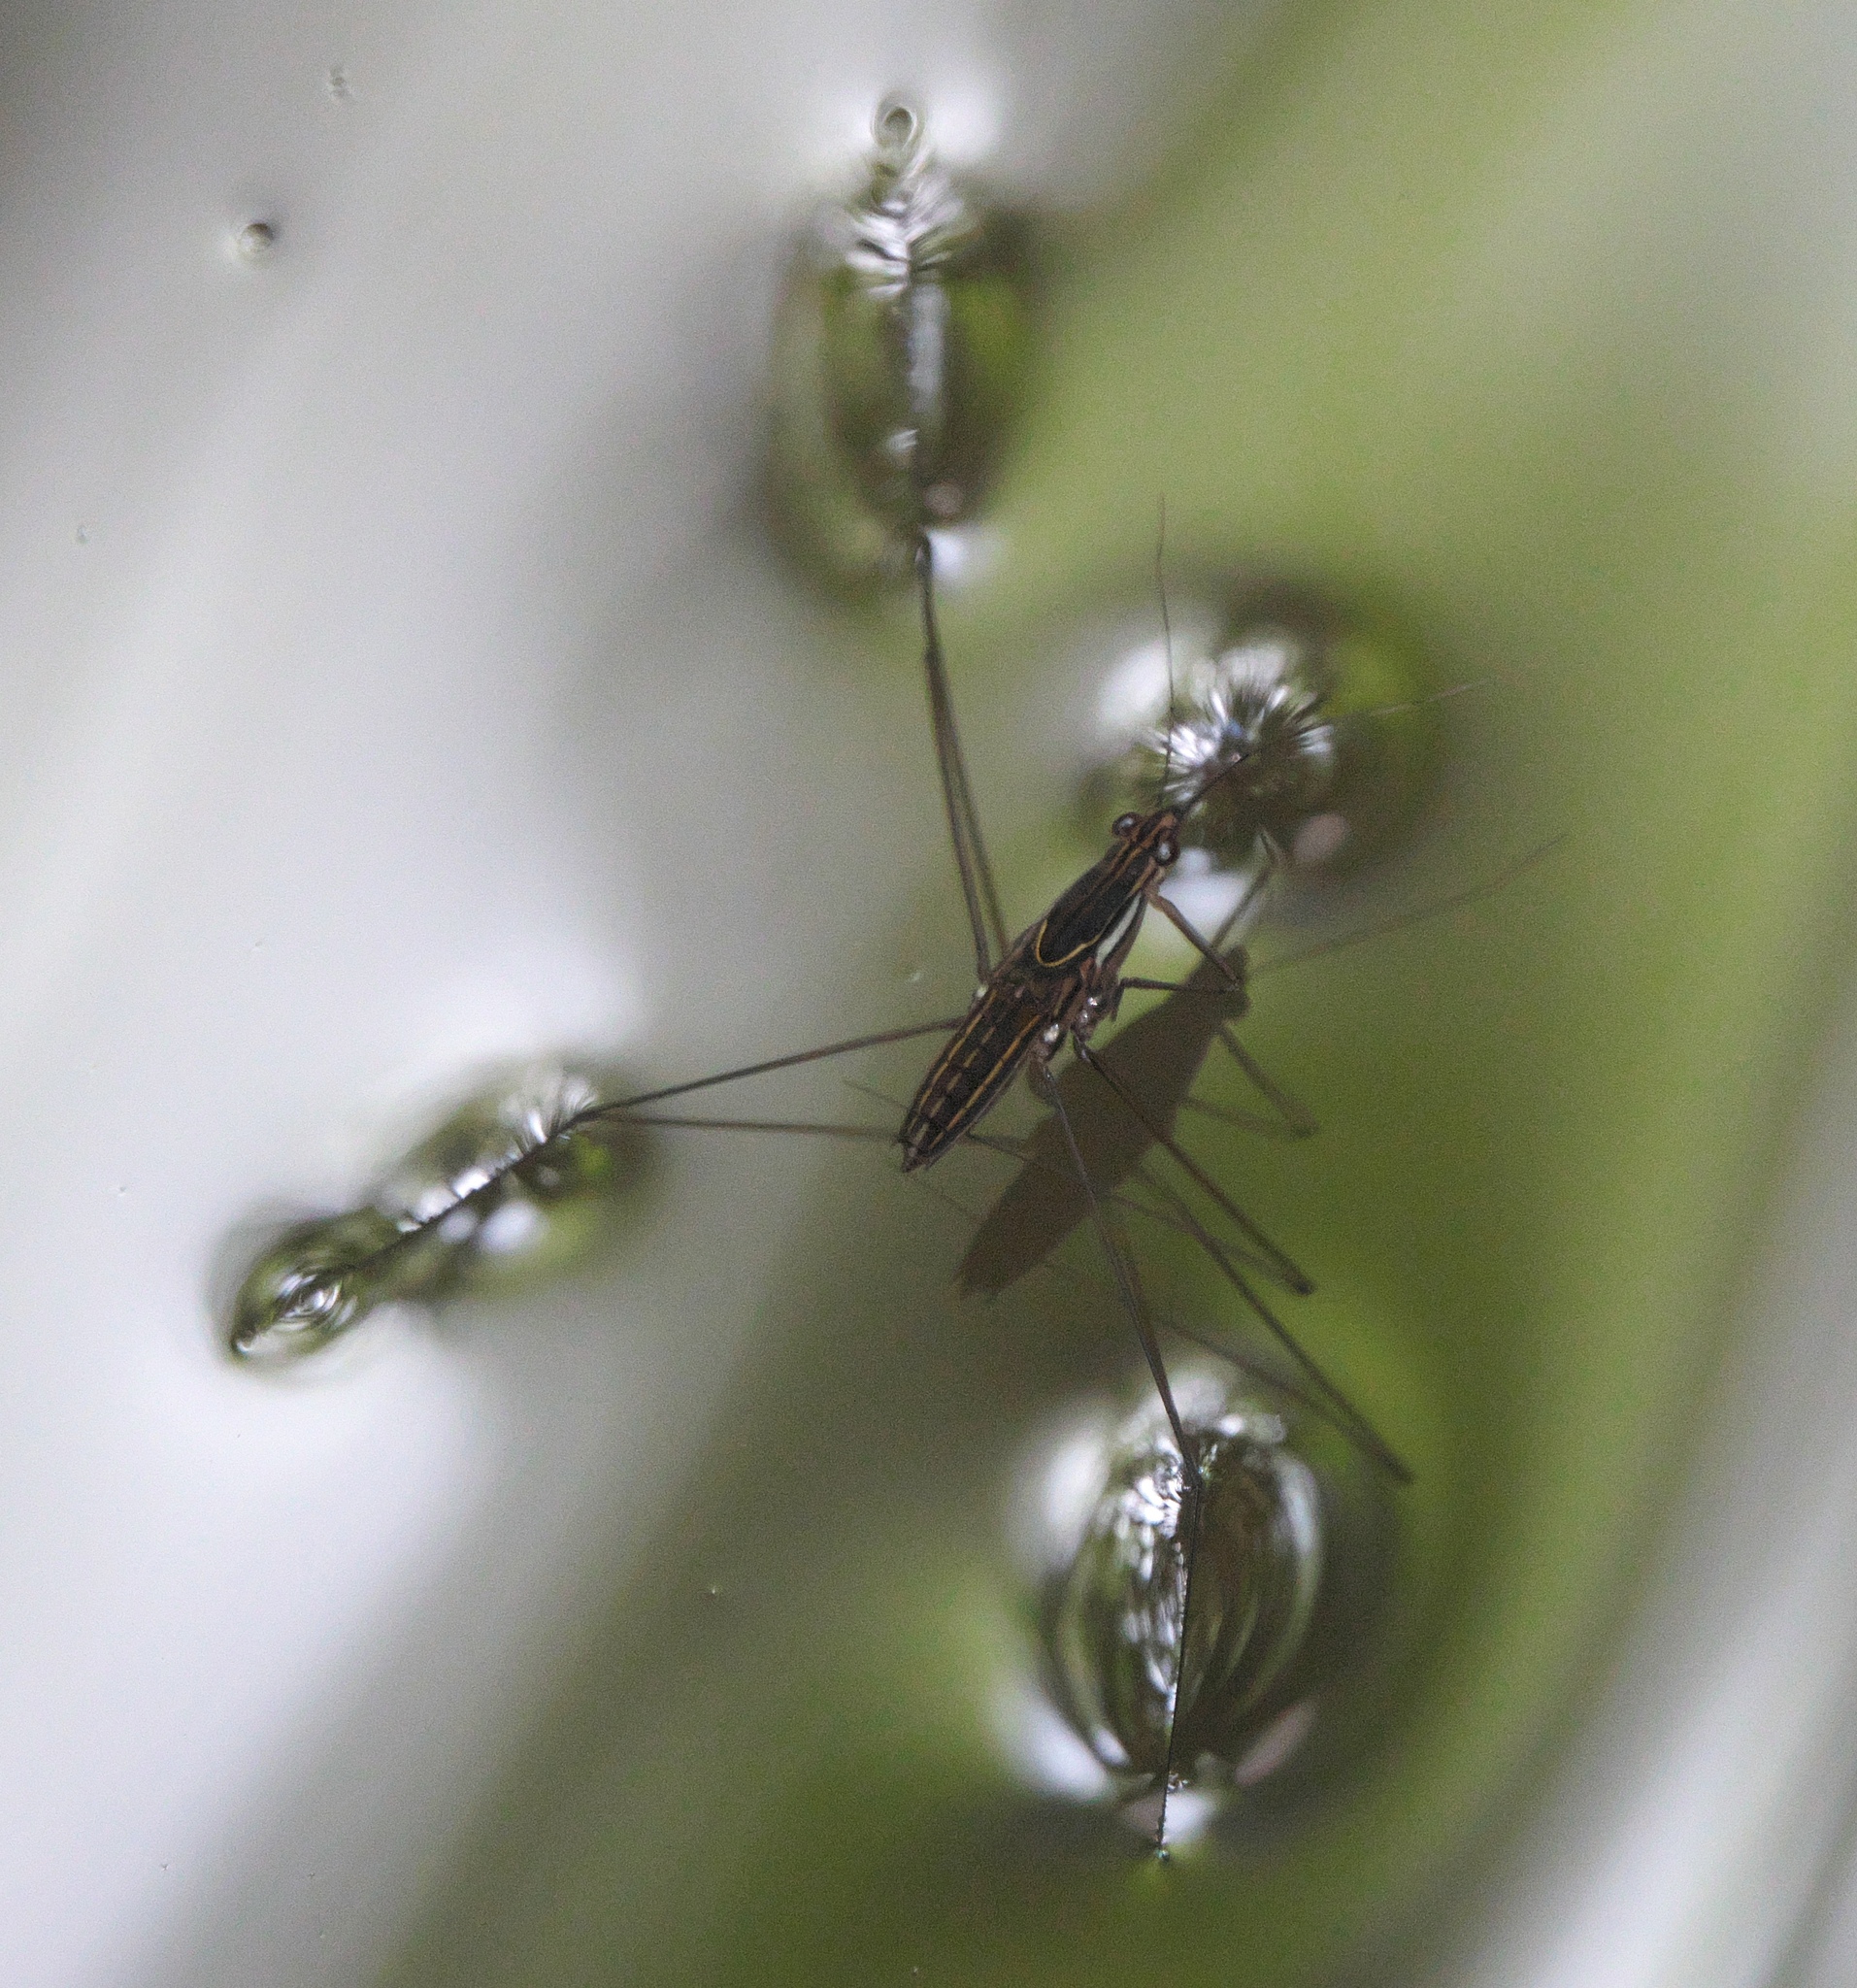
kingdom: Animalia
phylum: Arthropoda
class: Insecta
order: Hemiptera
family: Gerridae
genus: Limnometra
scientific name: Limnometra
